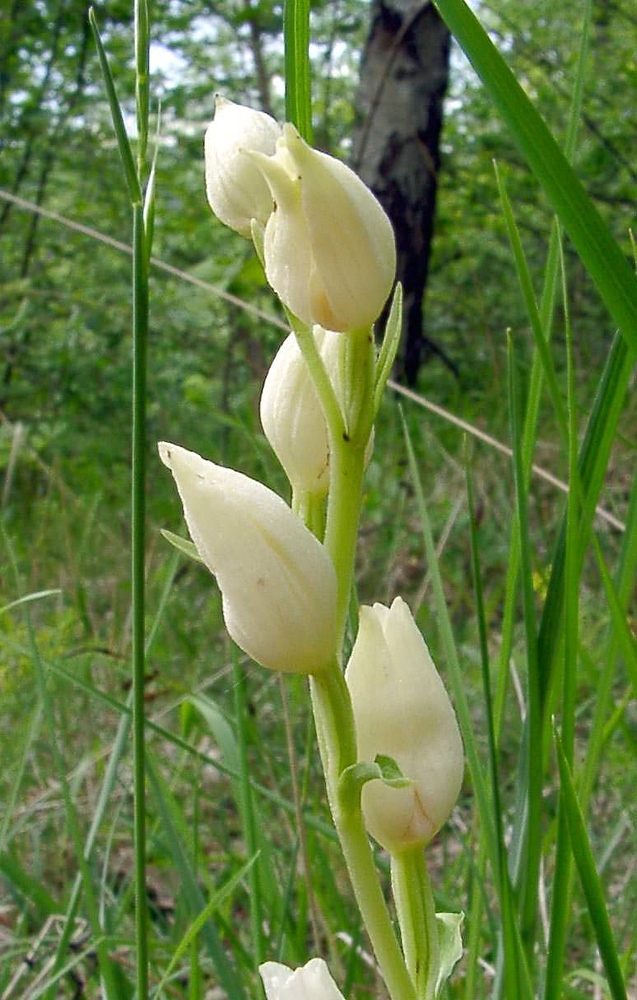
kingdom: Plantae
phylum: Tracheophyta
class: Liliopsida
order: Asparagales
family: Orchidaceae
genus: Cephalanthera
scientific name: Cephalanthera damasonium
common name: White helleborine
